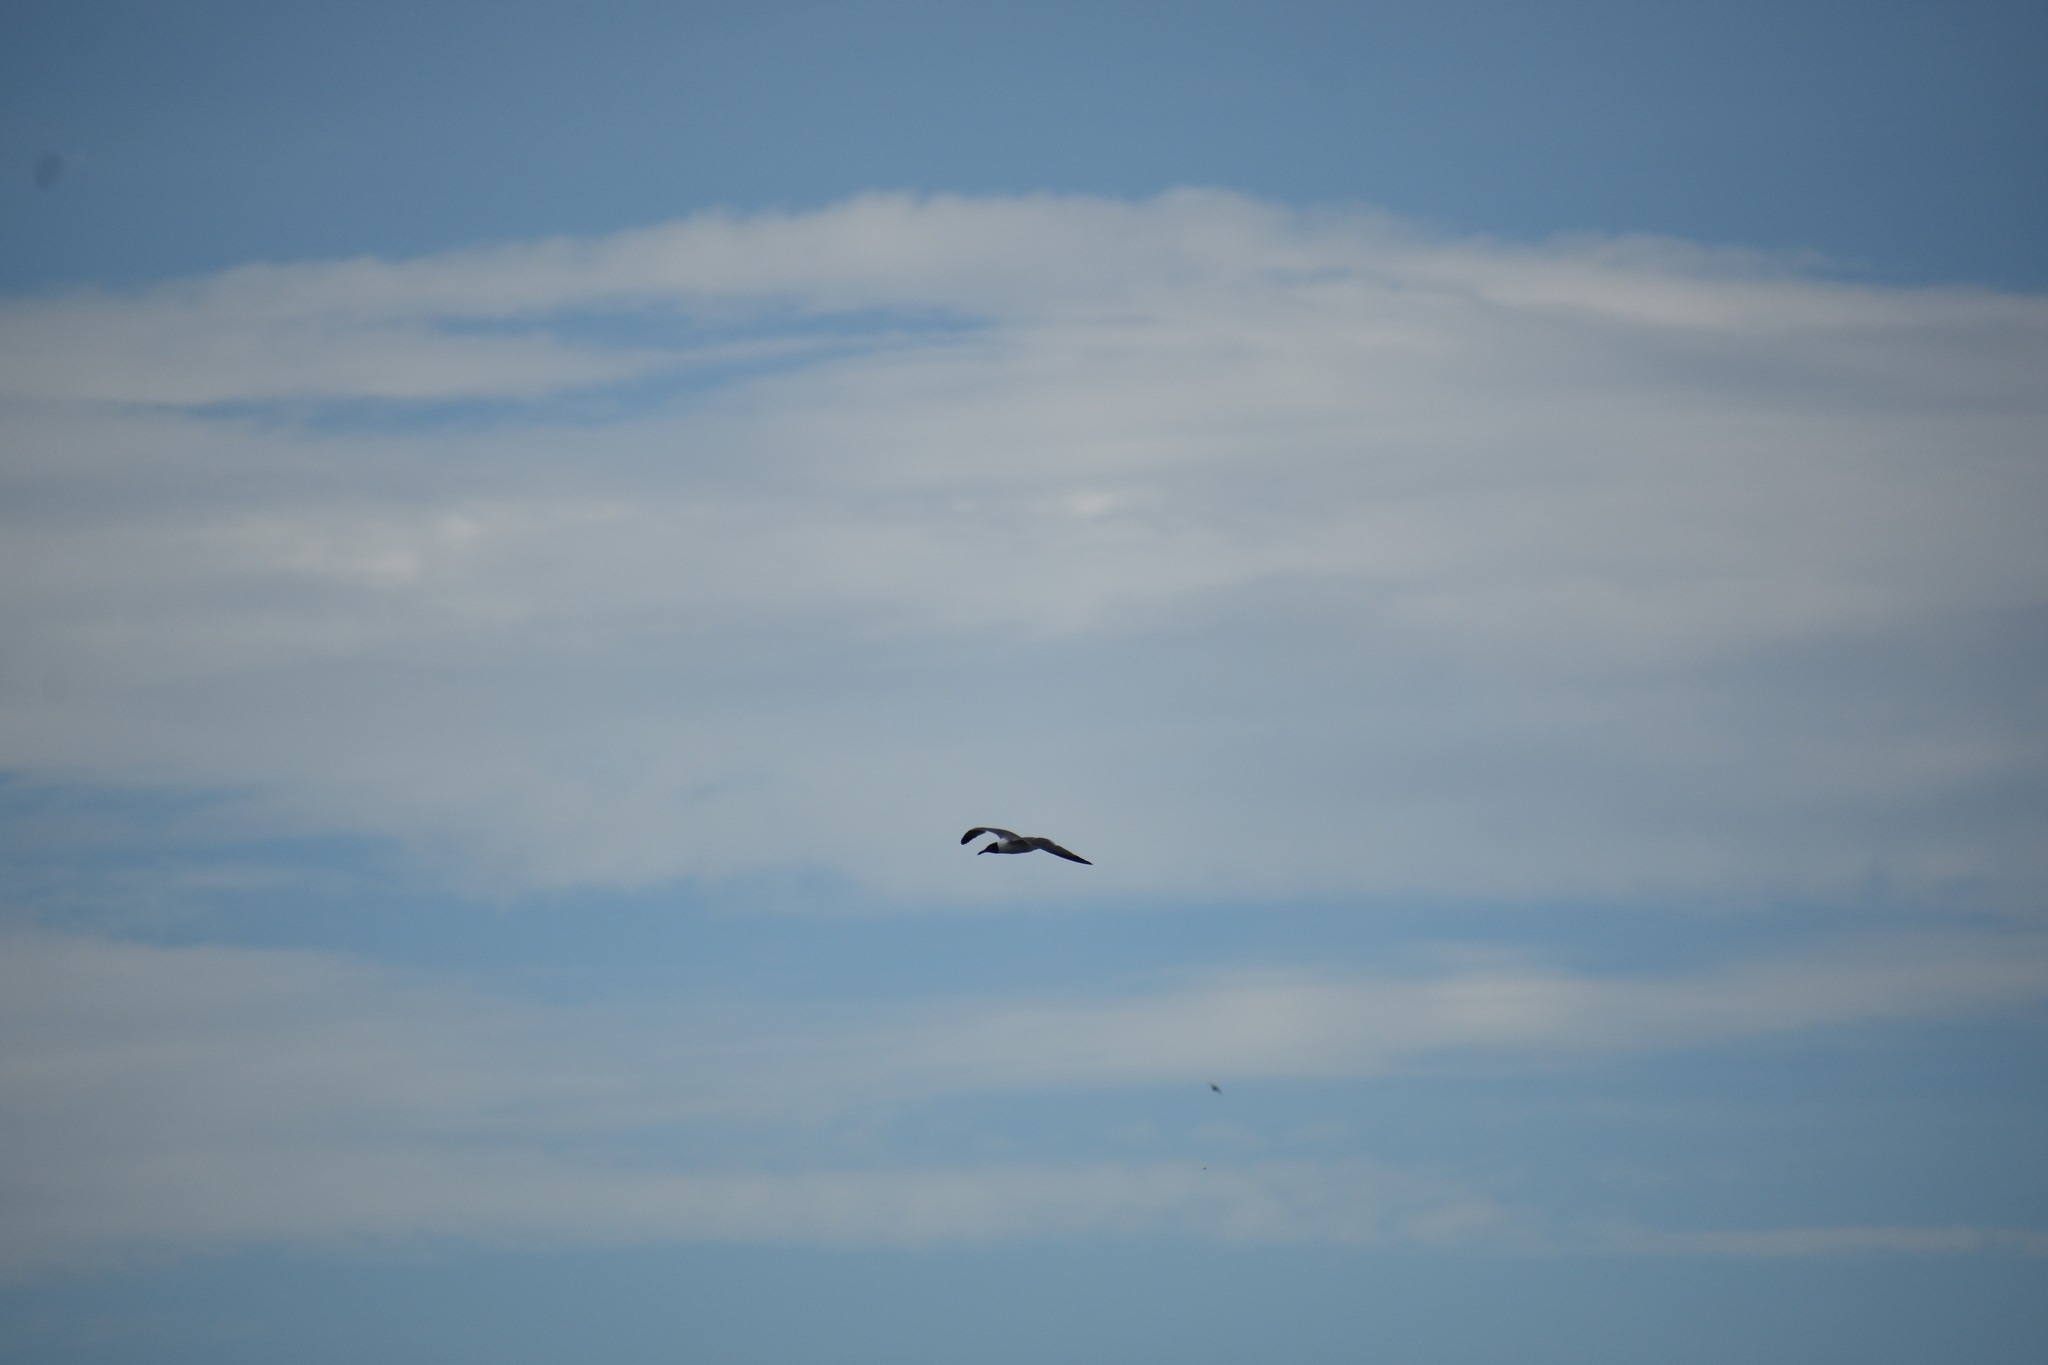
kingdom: Animalia
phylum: Chordata
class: Aves
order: Charadriiformes
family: Laridae
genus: Leucophaeus
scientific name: Leucophaeus atricilla
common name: Laughing gull
